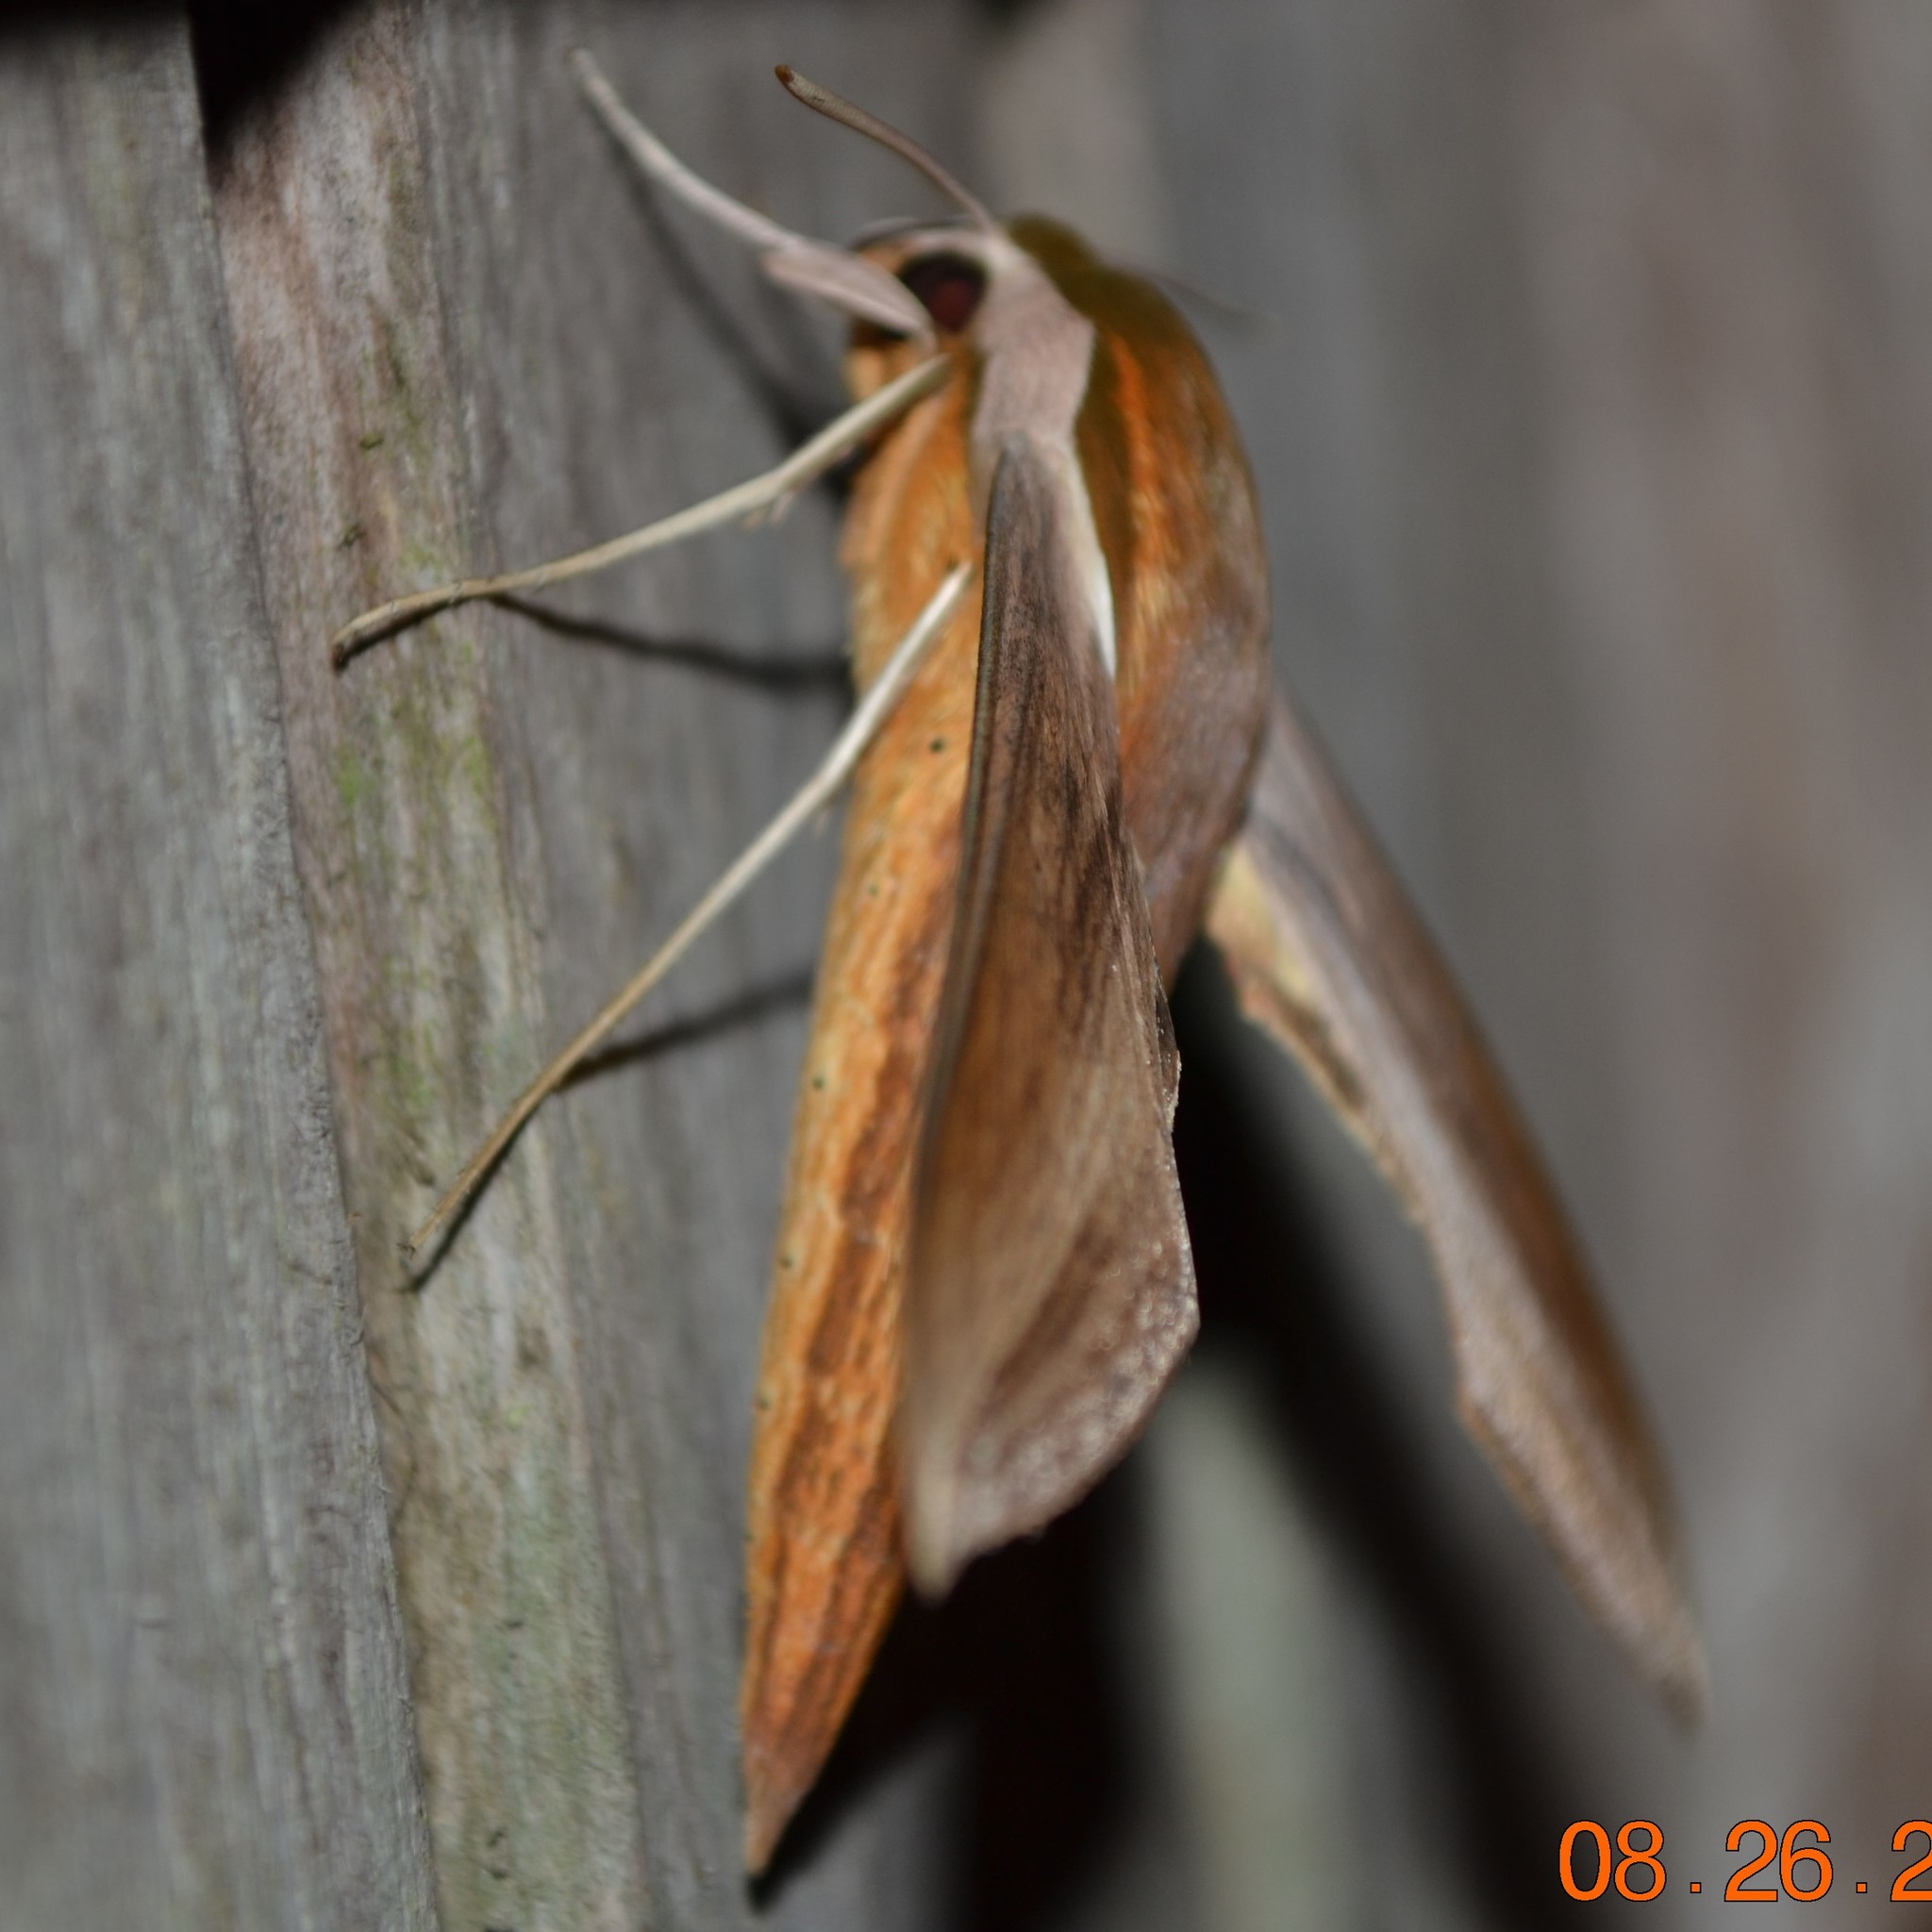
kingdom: Animalia
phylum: Arthropoda
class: Insecta
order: Lepidoptera
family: Sphingidae
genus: Xylophanes
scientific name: Xylophanes tersa
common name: Tersa sphinx
